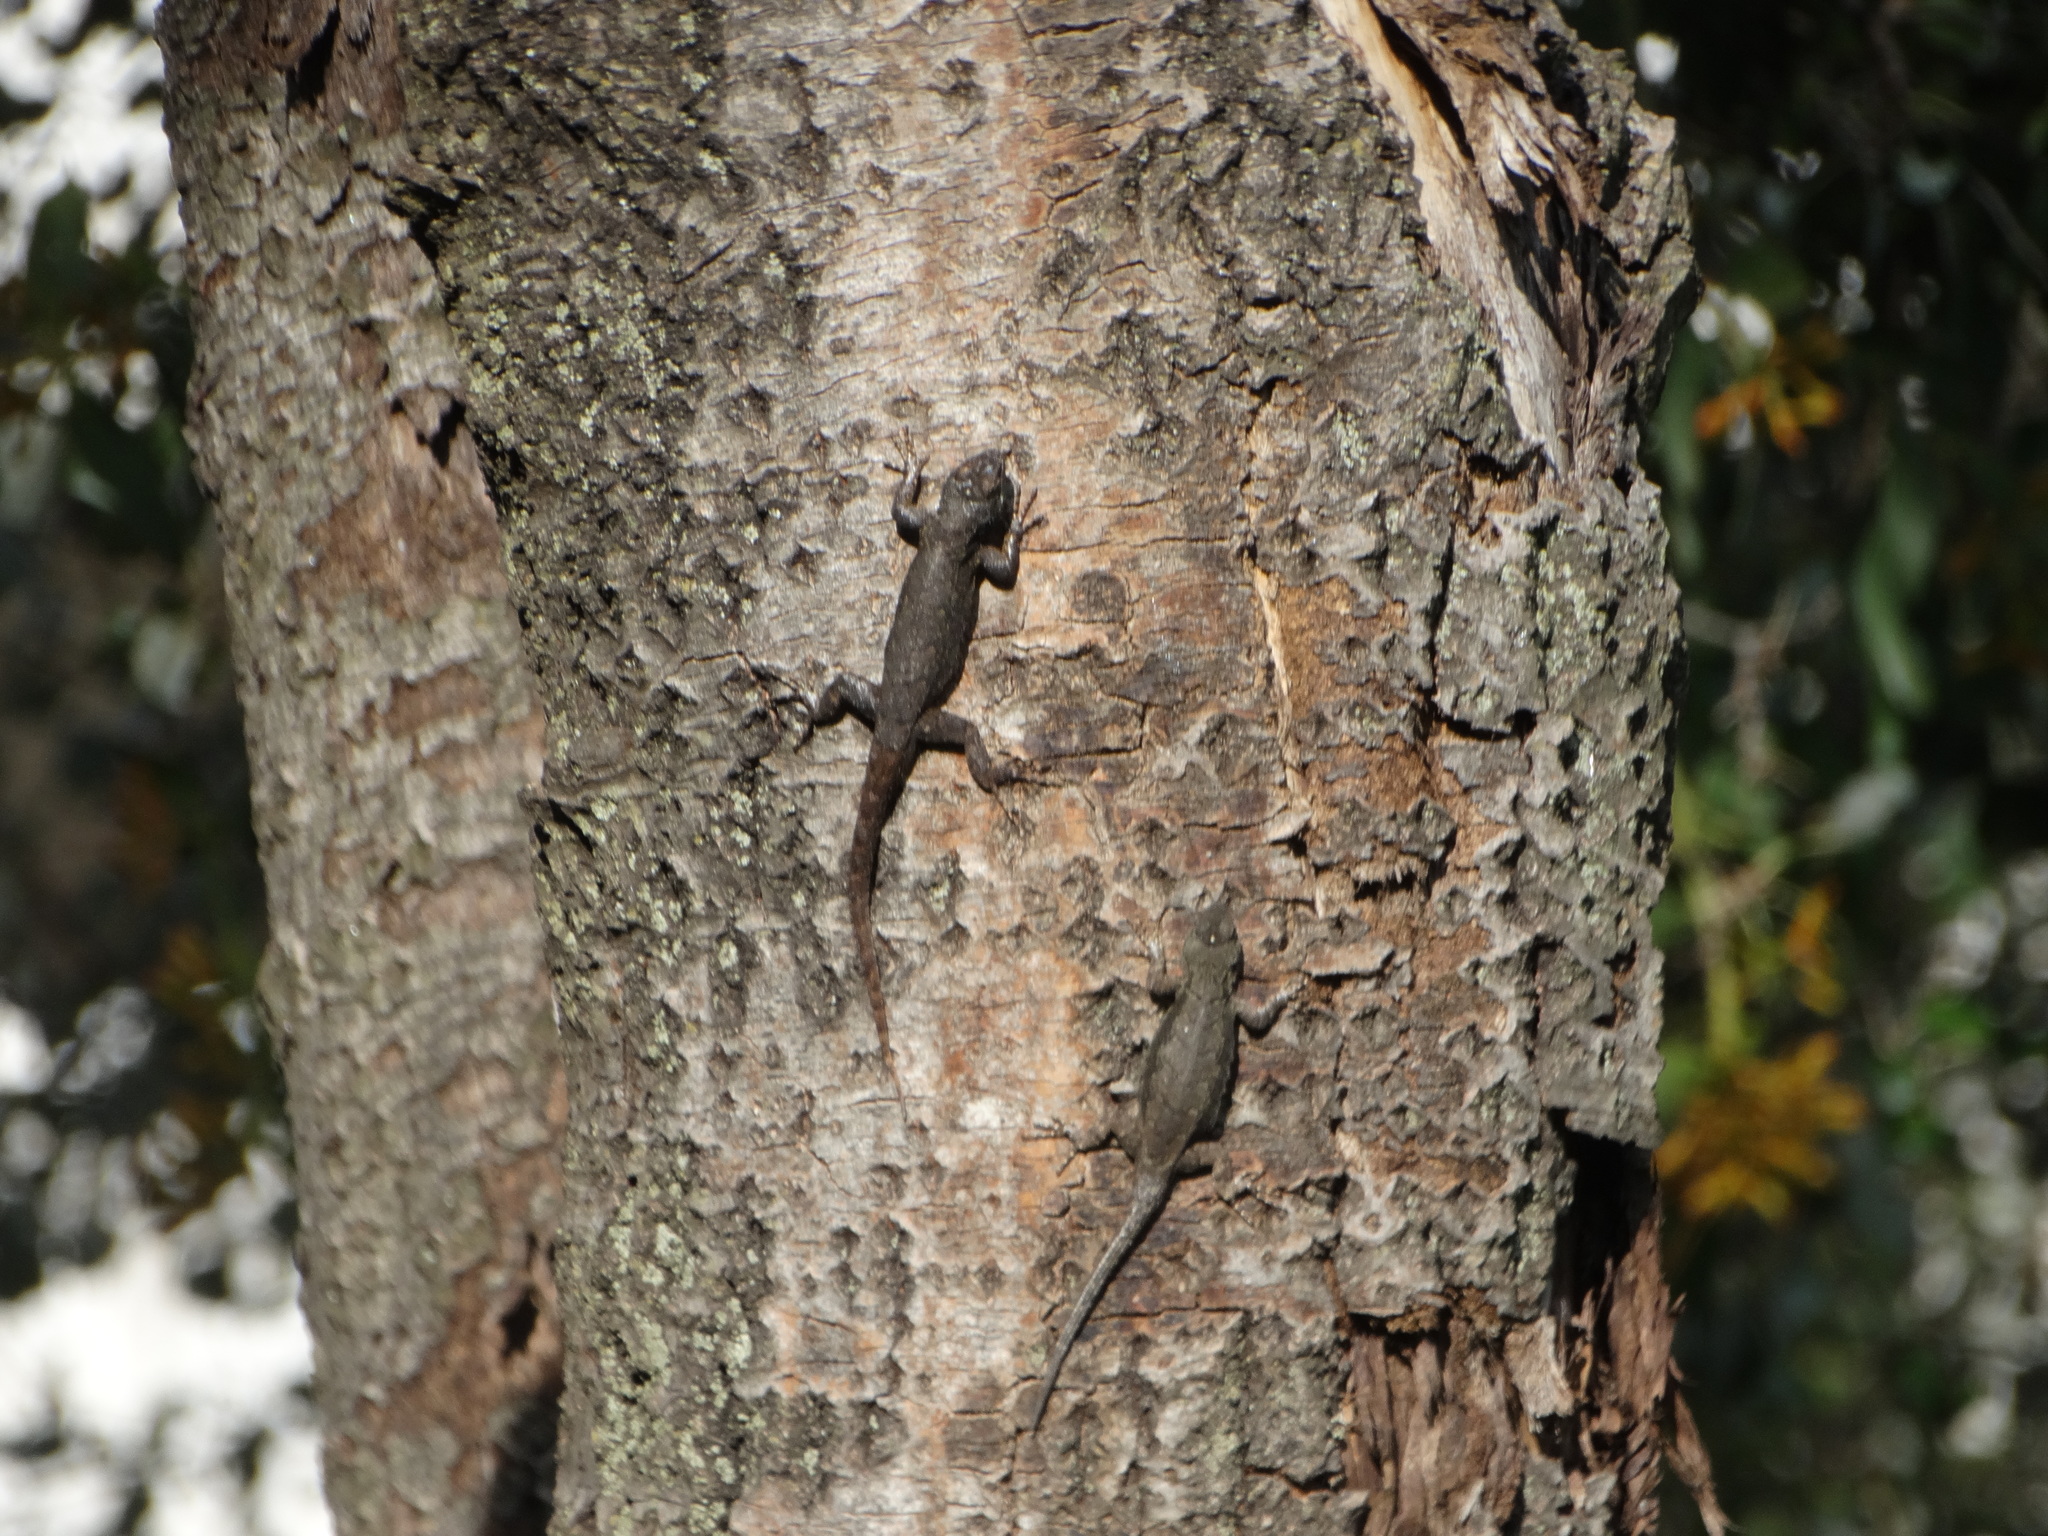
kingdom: Animalia
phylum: Chordata
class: Squamata
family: Phrynosomatidae
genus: Sceloporus
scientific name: Sceloporus grammicus
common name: Mesquite lizard
